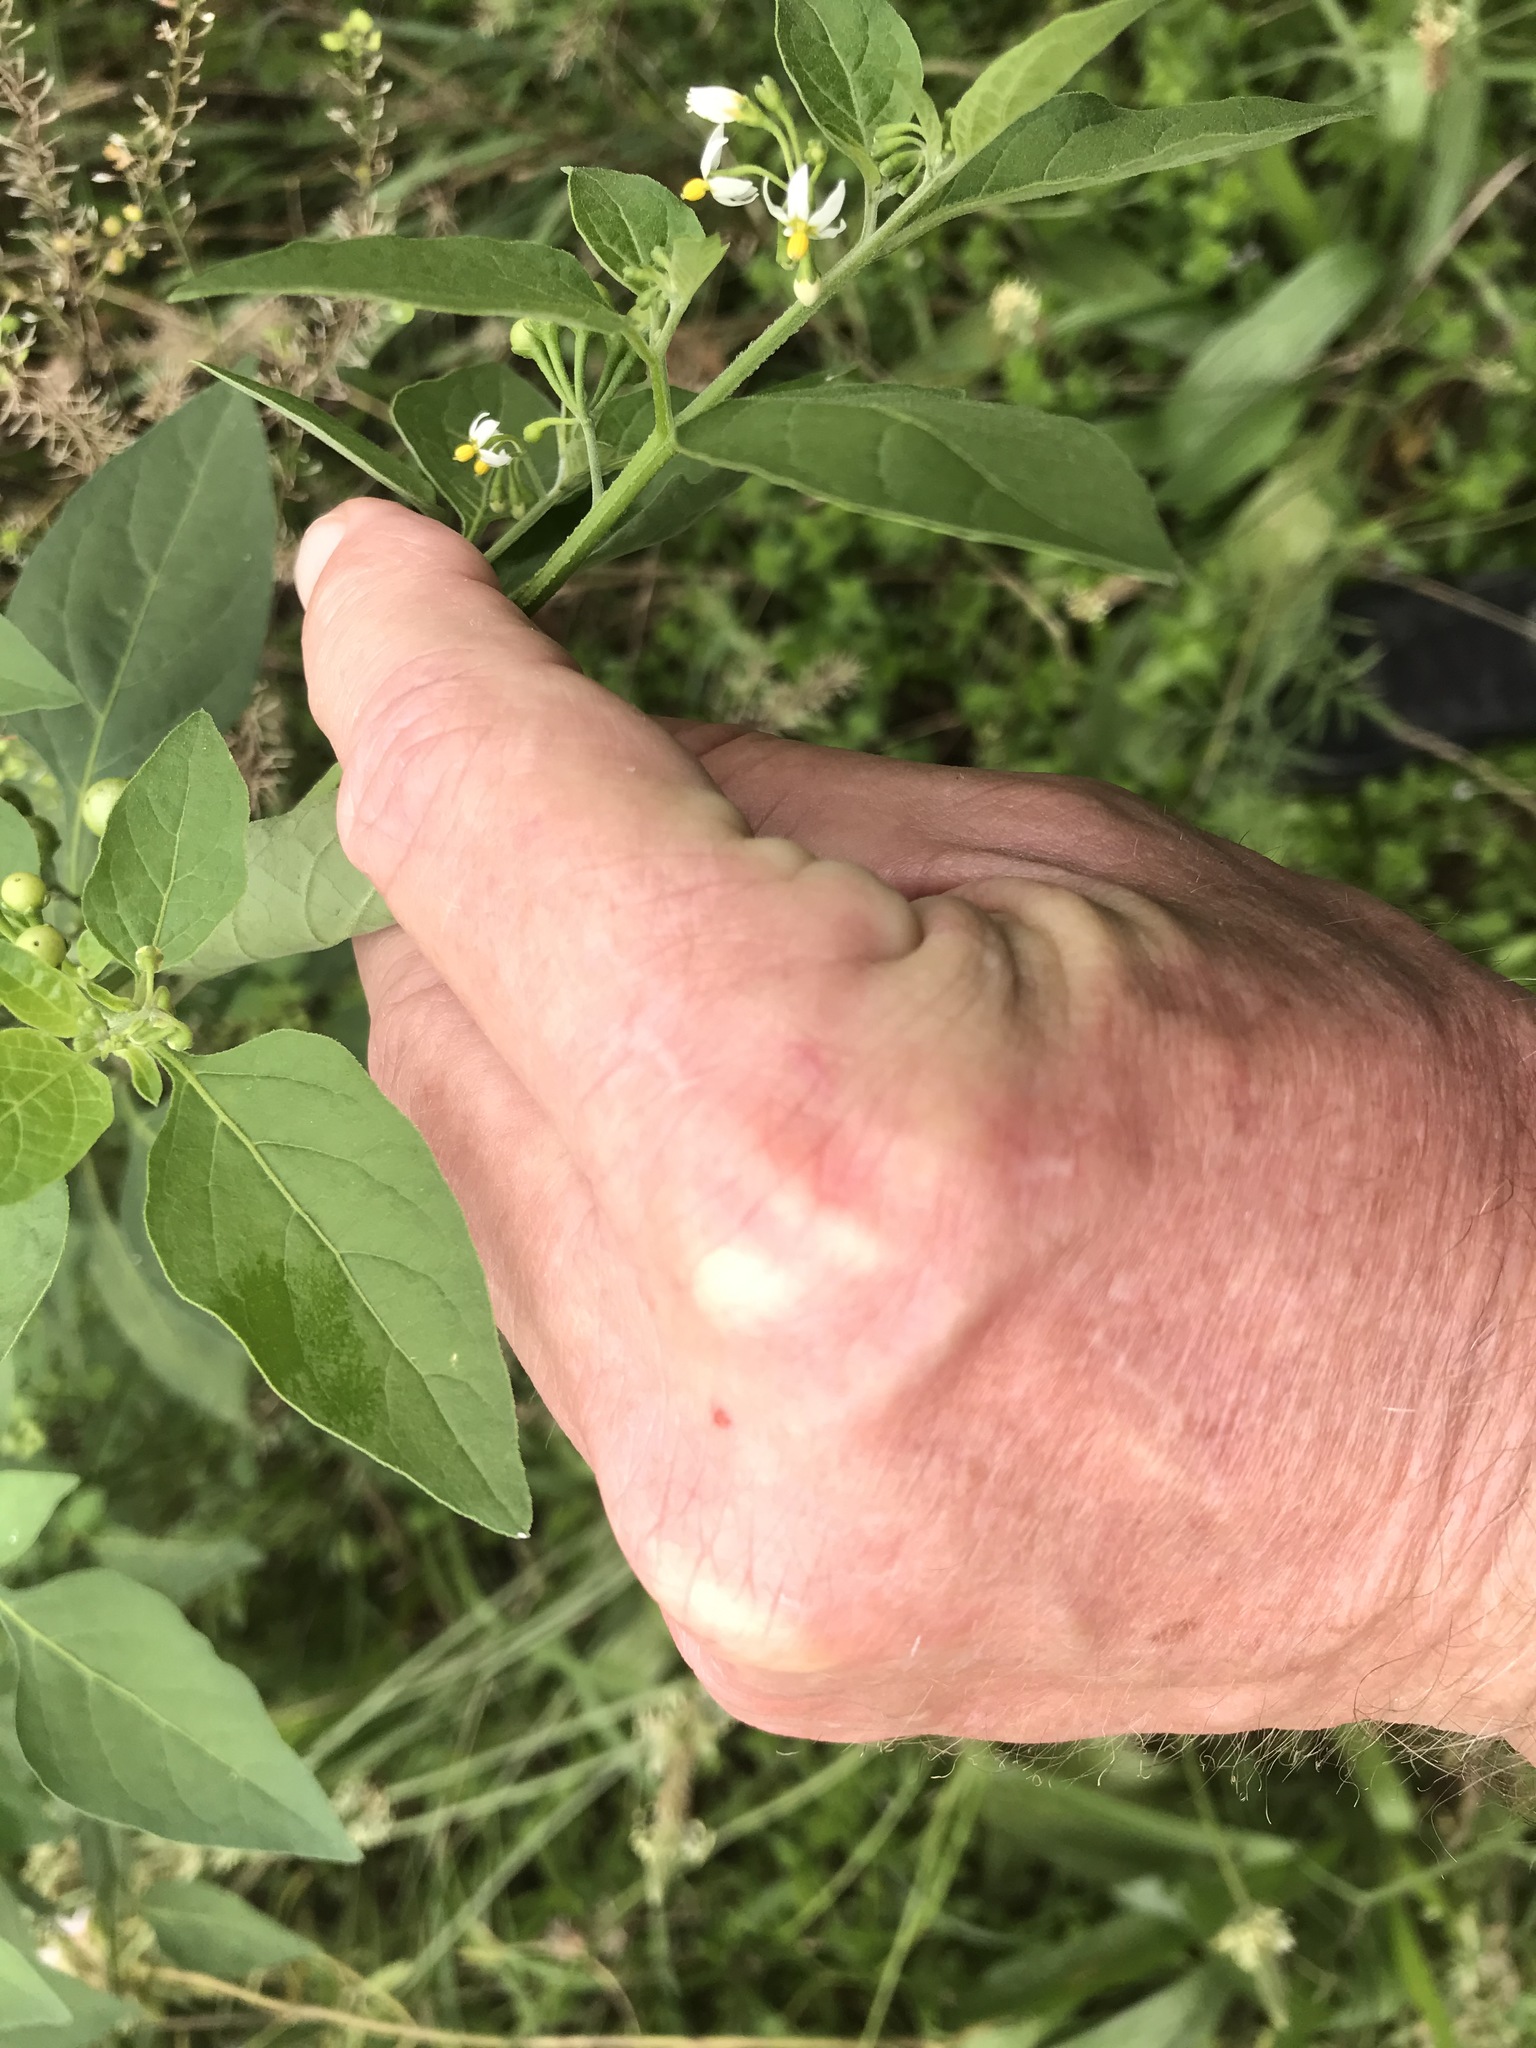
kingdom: Plantae
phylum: Tracheophyta
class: Magnoliopsida
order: Solanales
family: Solanaceae
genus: Solanum
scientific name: Solanum americanum
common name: American black nightshade
